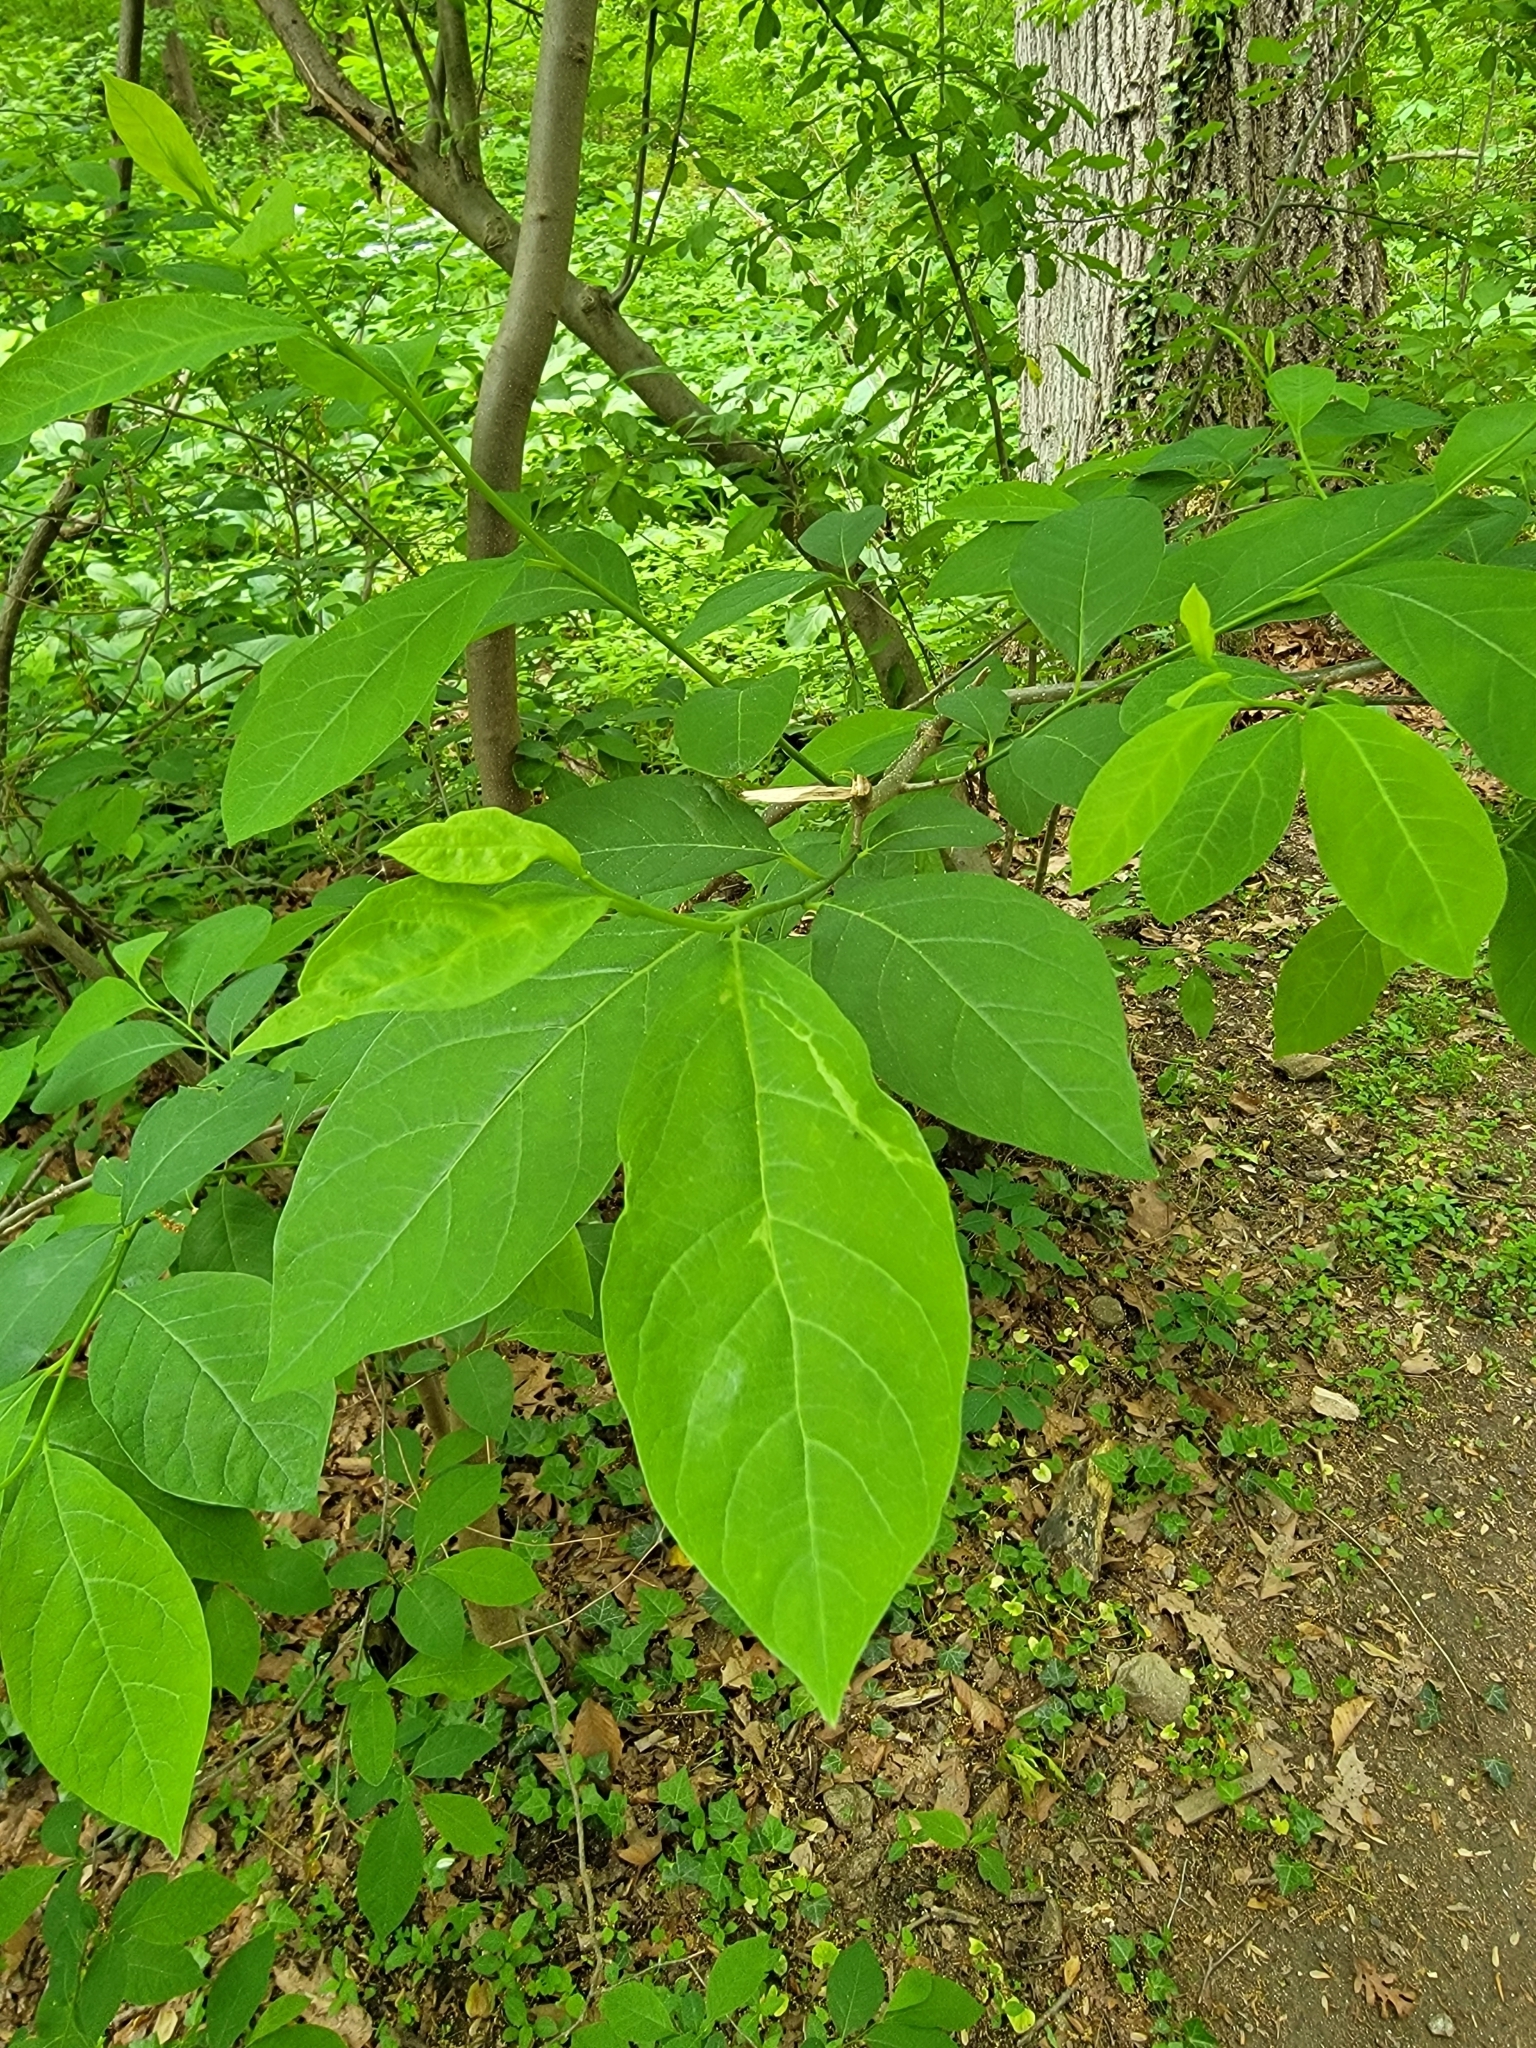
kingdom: Plantae
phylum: Tracheophyta
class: Magnoliopsida
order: Laurales
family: Lauraceae
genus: Lindera
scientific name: Lindera benzoin
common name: Spicebush
